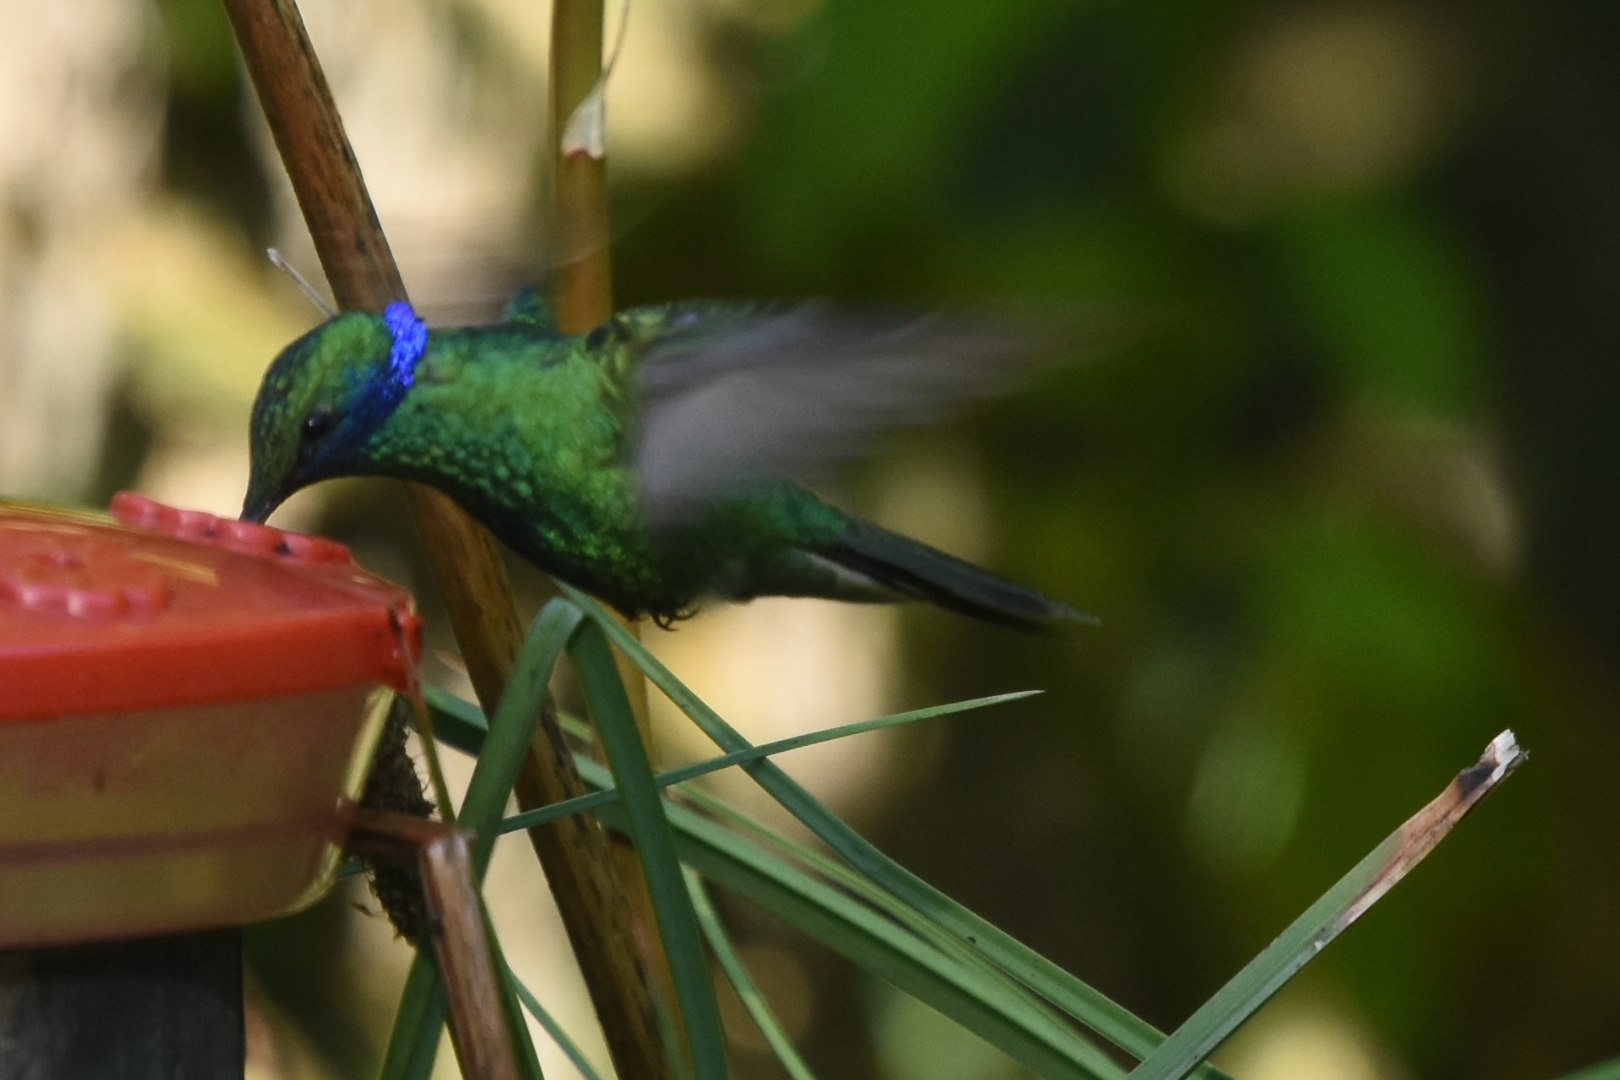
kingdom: Animalia
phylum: Chordata
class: Aves
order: Apodiformes
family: Trochilidae
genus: Colibri
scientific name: Colibri coruscans
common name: Sparkling violetear
